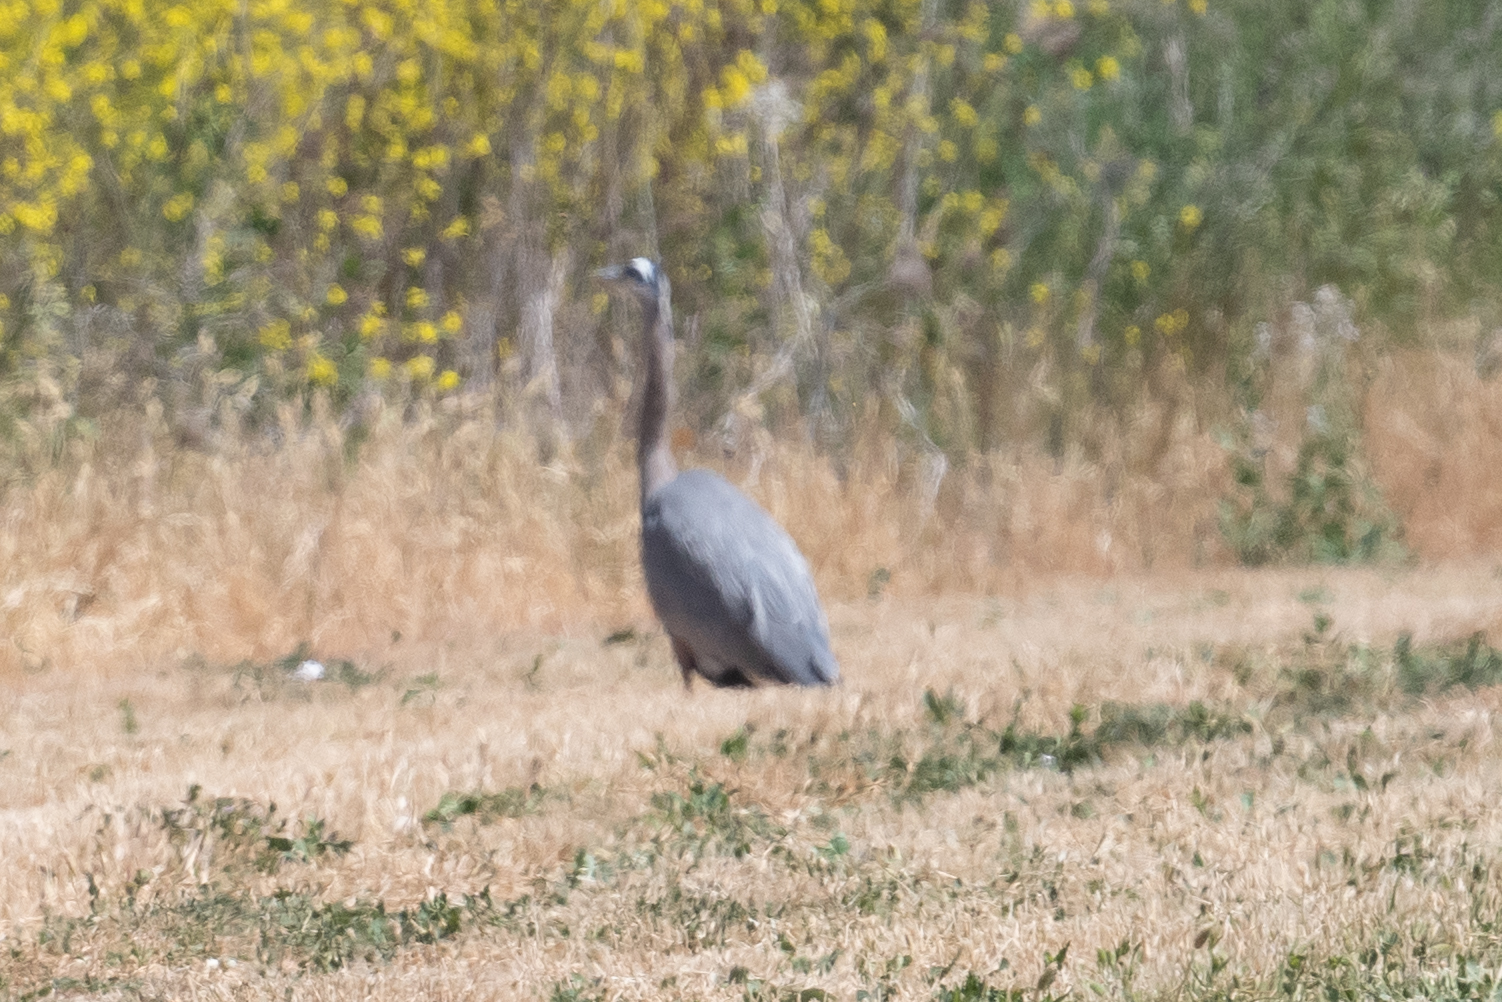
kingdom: Animalia
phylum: Chordata
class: Aves
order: Pelecaniformes
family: Ardeidae
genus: Ardea
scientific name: Ardea herodias
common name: Great blue heron
